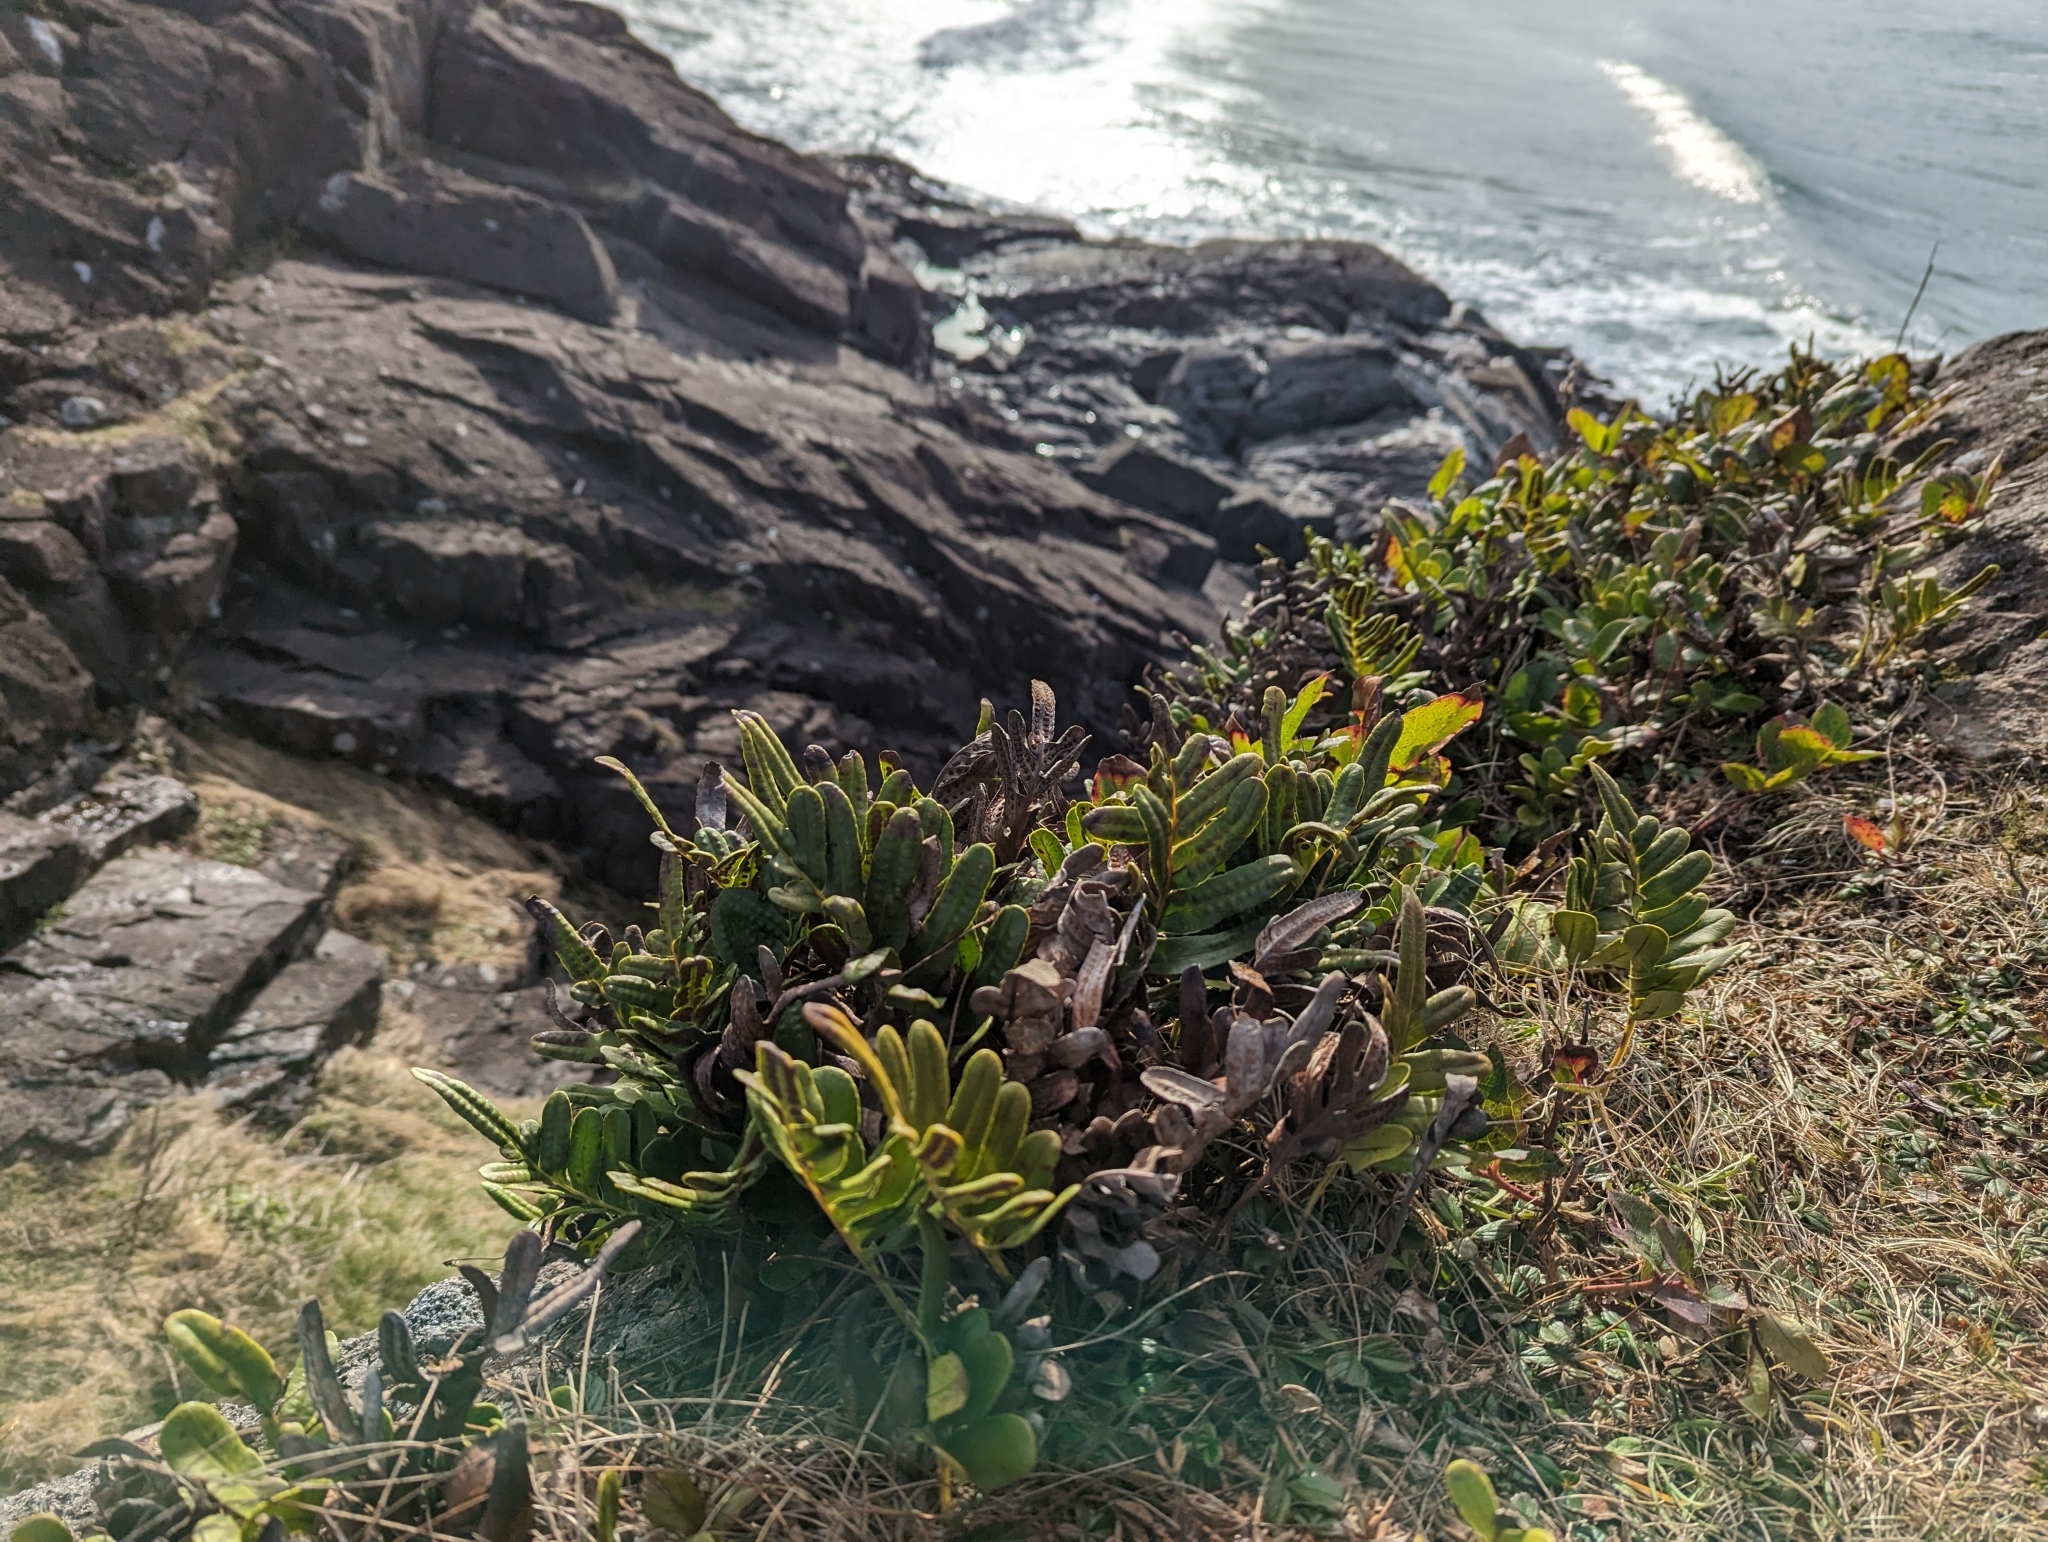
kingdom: Plantae
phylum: Tracheophyta
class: Polypodiopsida
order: Polypodiales
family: Polypodiaceae
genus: Polypodium
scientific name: Polypodium scouleri
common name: Scouler's polypody
